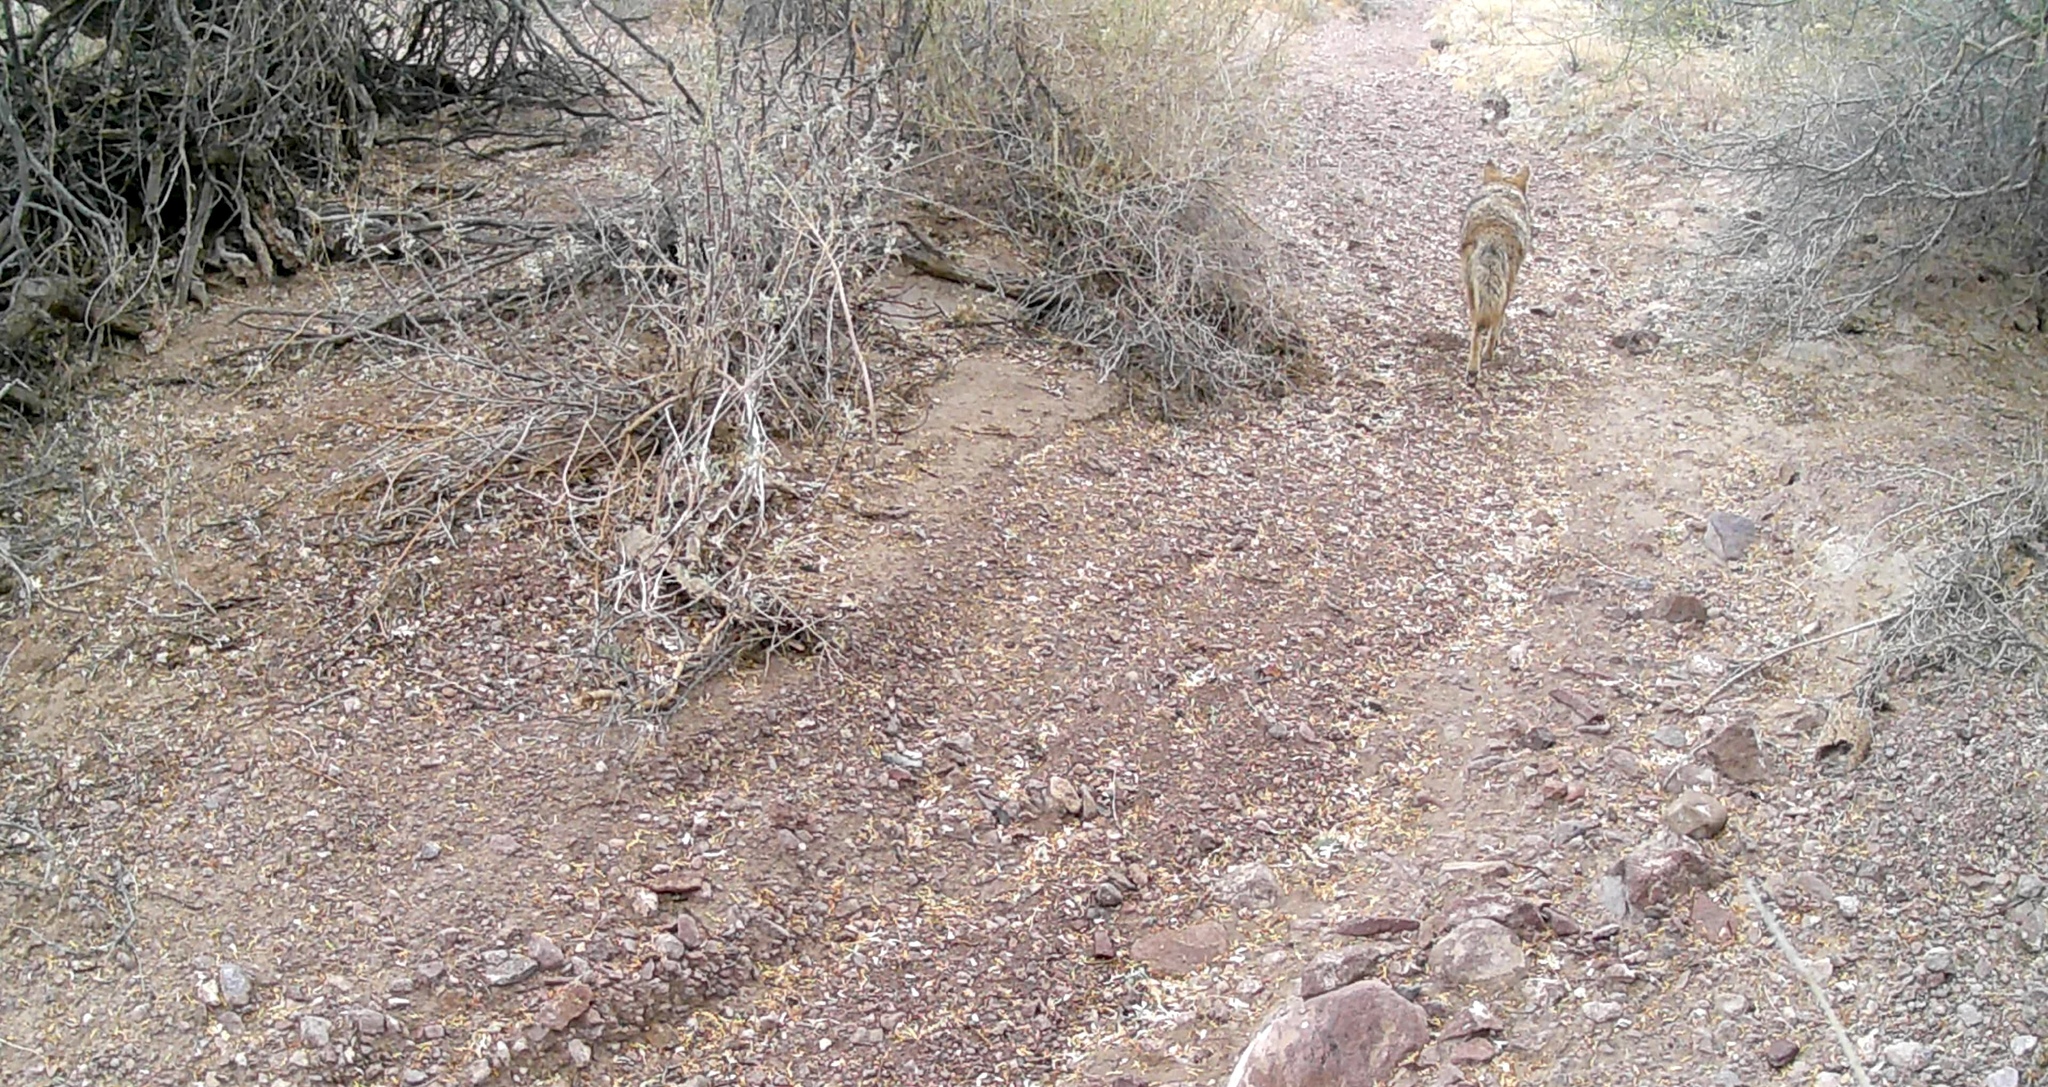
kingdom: Animalia
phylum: Chordata
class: Mammalia
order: Carnivora
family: Canidae
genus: Canis
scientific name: Canis latrans
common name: Coyote
